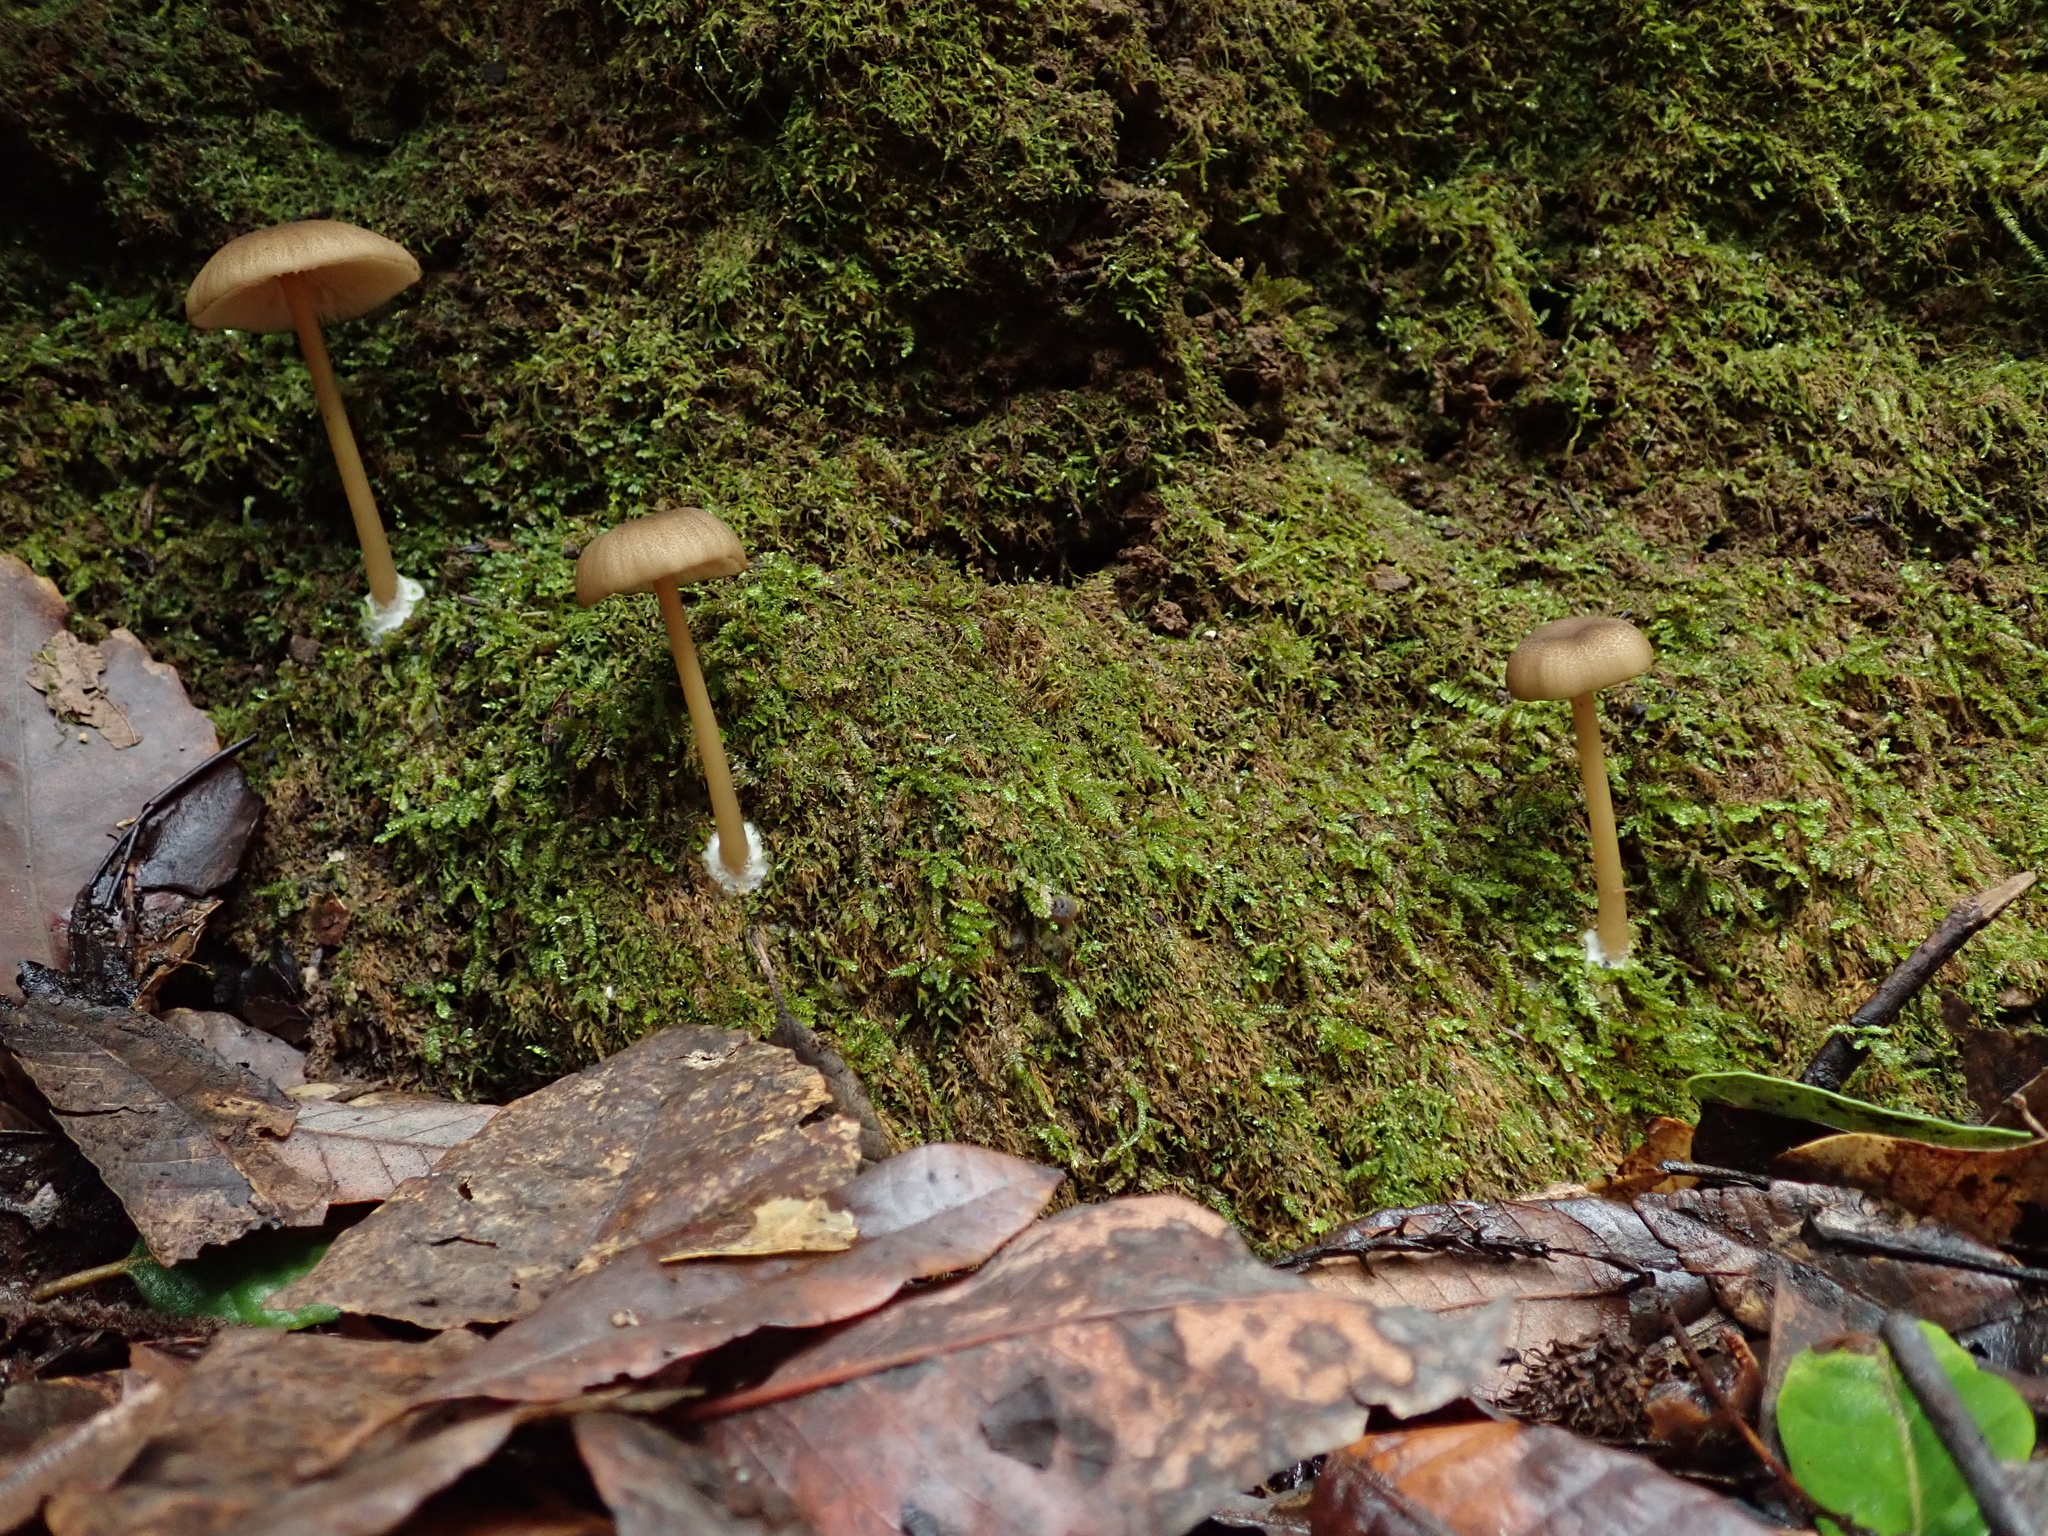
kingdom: Fungi
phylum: Basidiomycota
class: Agaricomycetes
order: Agaricales
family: Entolomataceae
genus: Entoloma
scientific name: Entoloma formosum
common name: Pretty pinkgill
